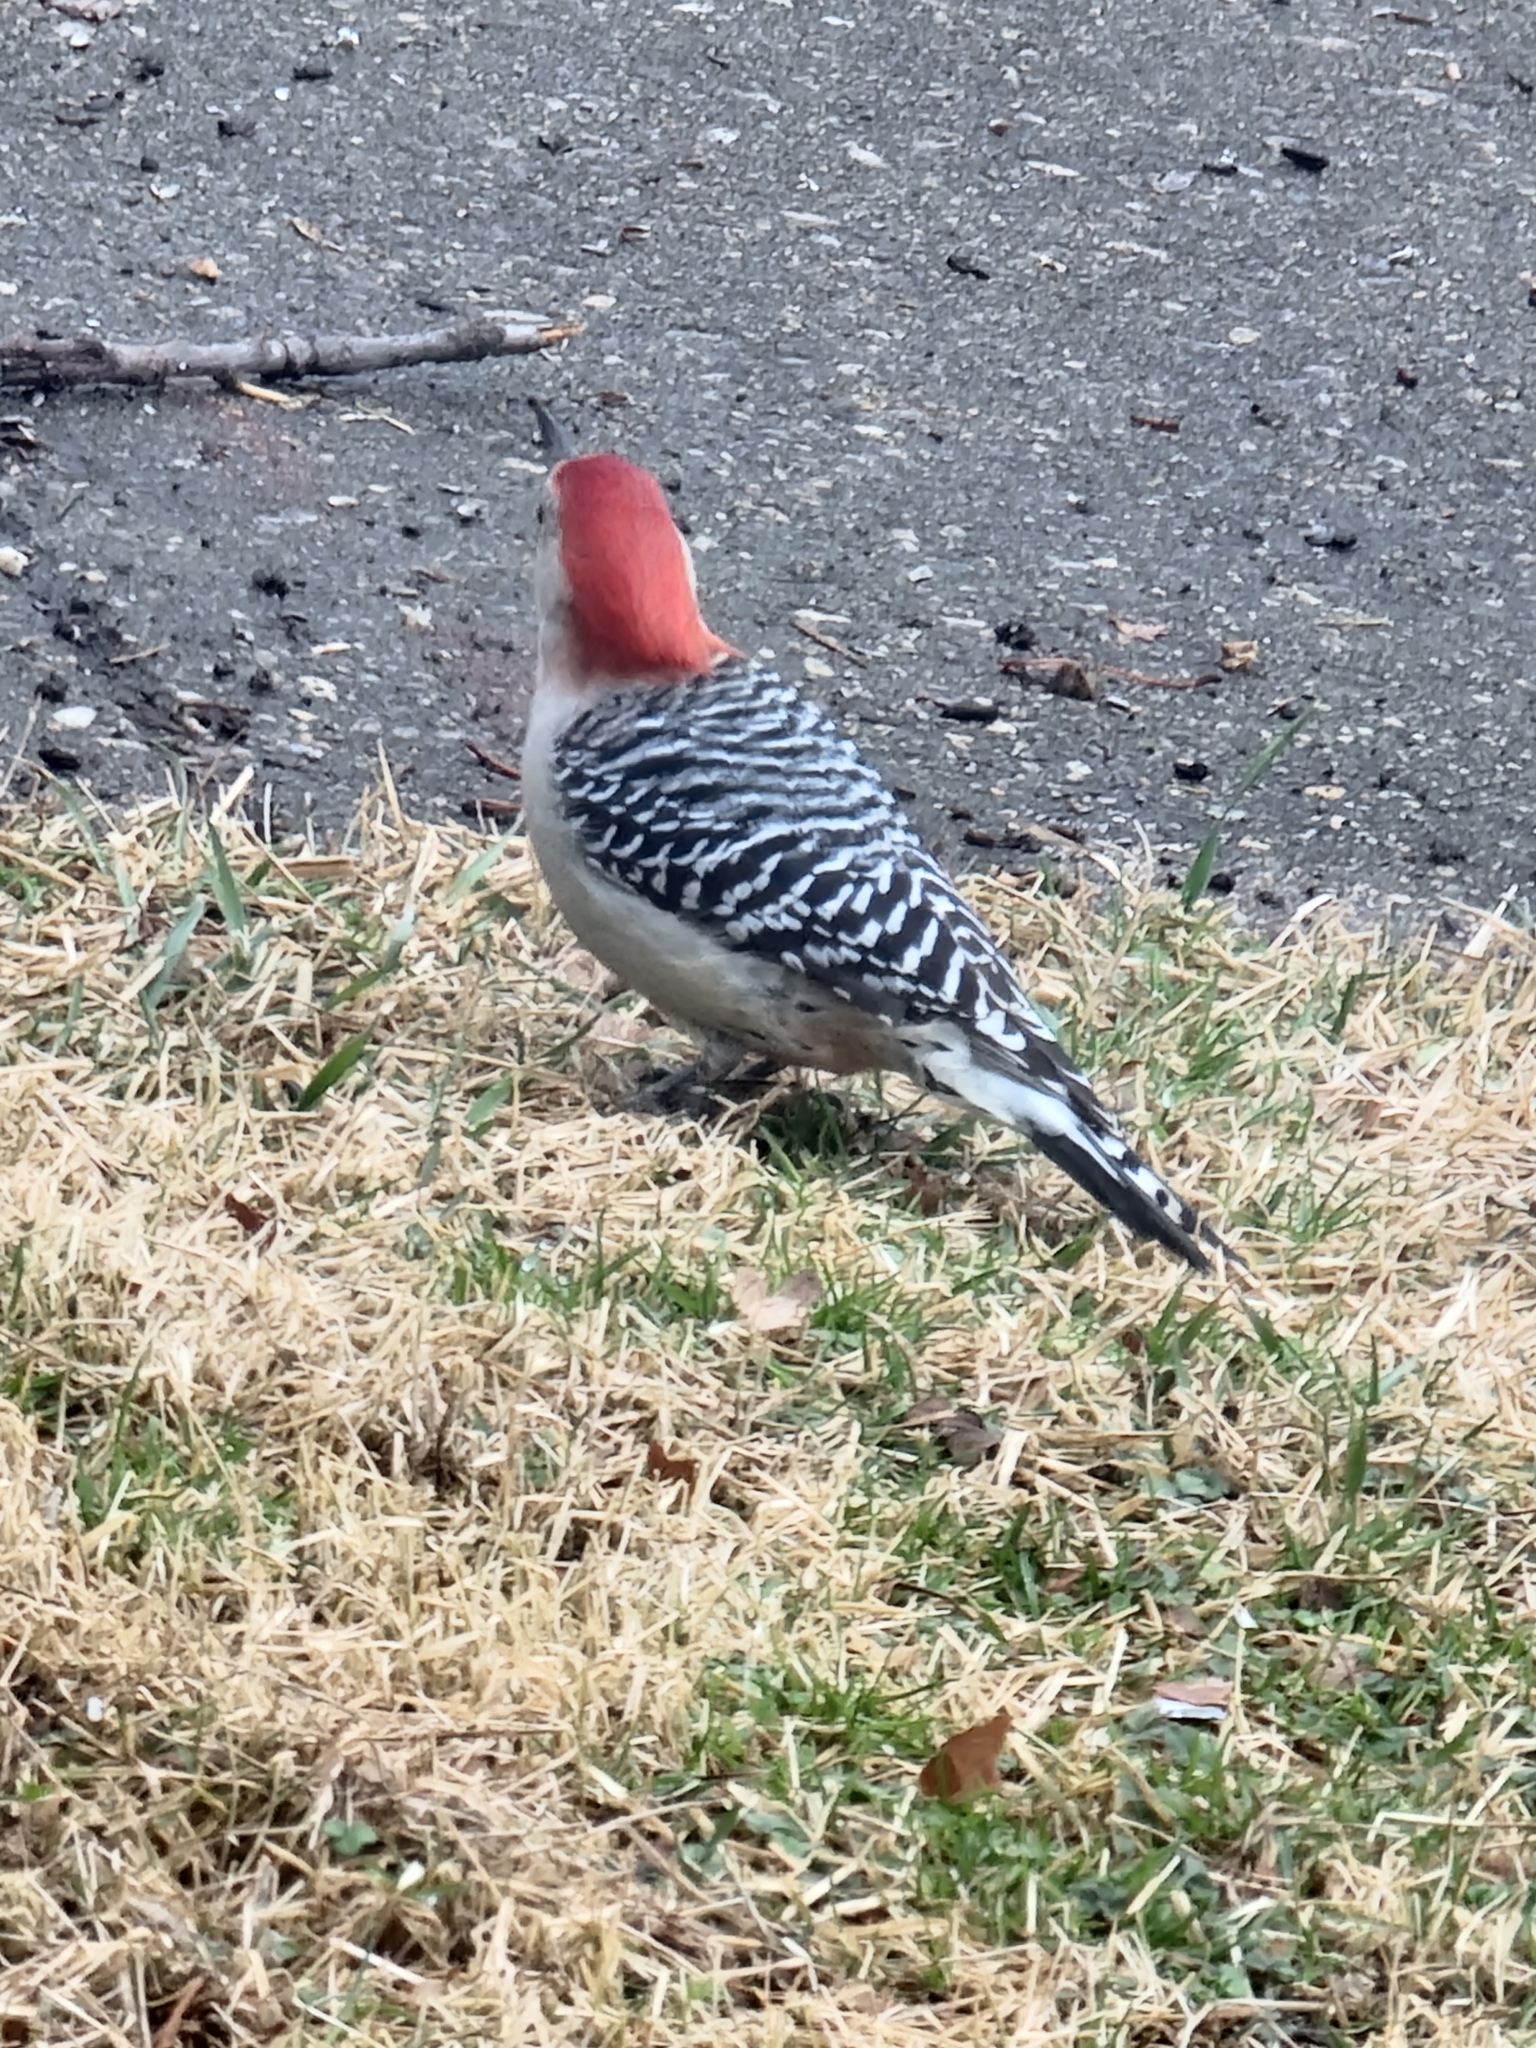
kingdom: Animalia
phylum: Chordata
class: Aves
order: Piciformes
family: Picidae
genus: Melanerpes
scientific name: Melanerpes carolinus
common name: Red-bellied woodpecker
